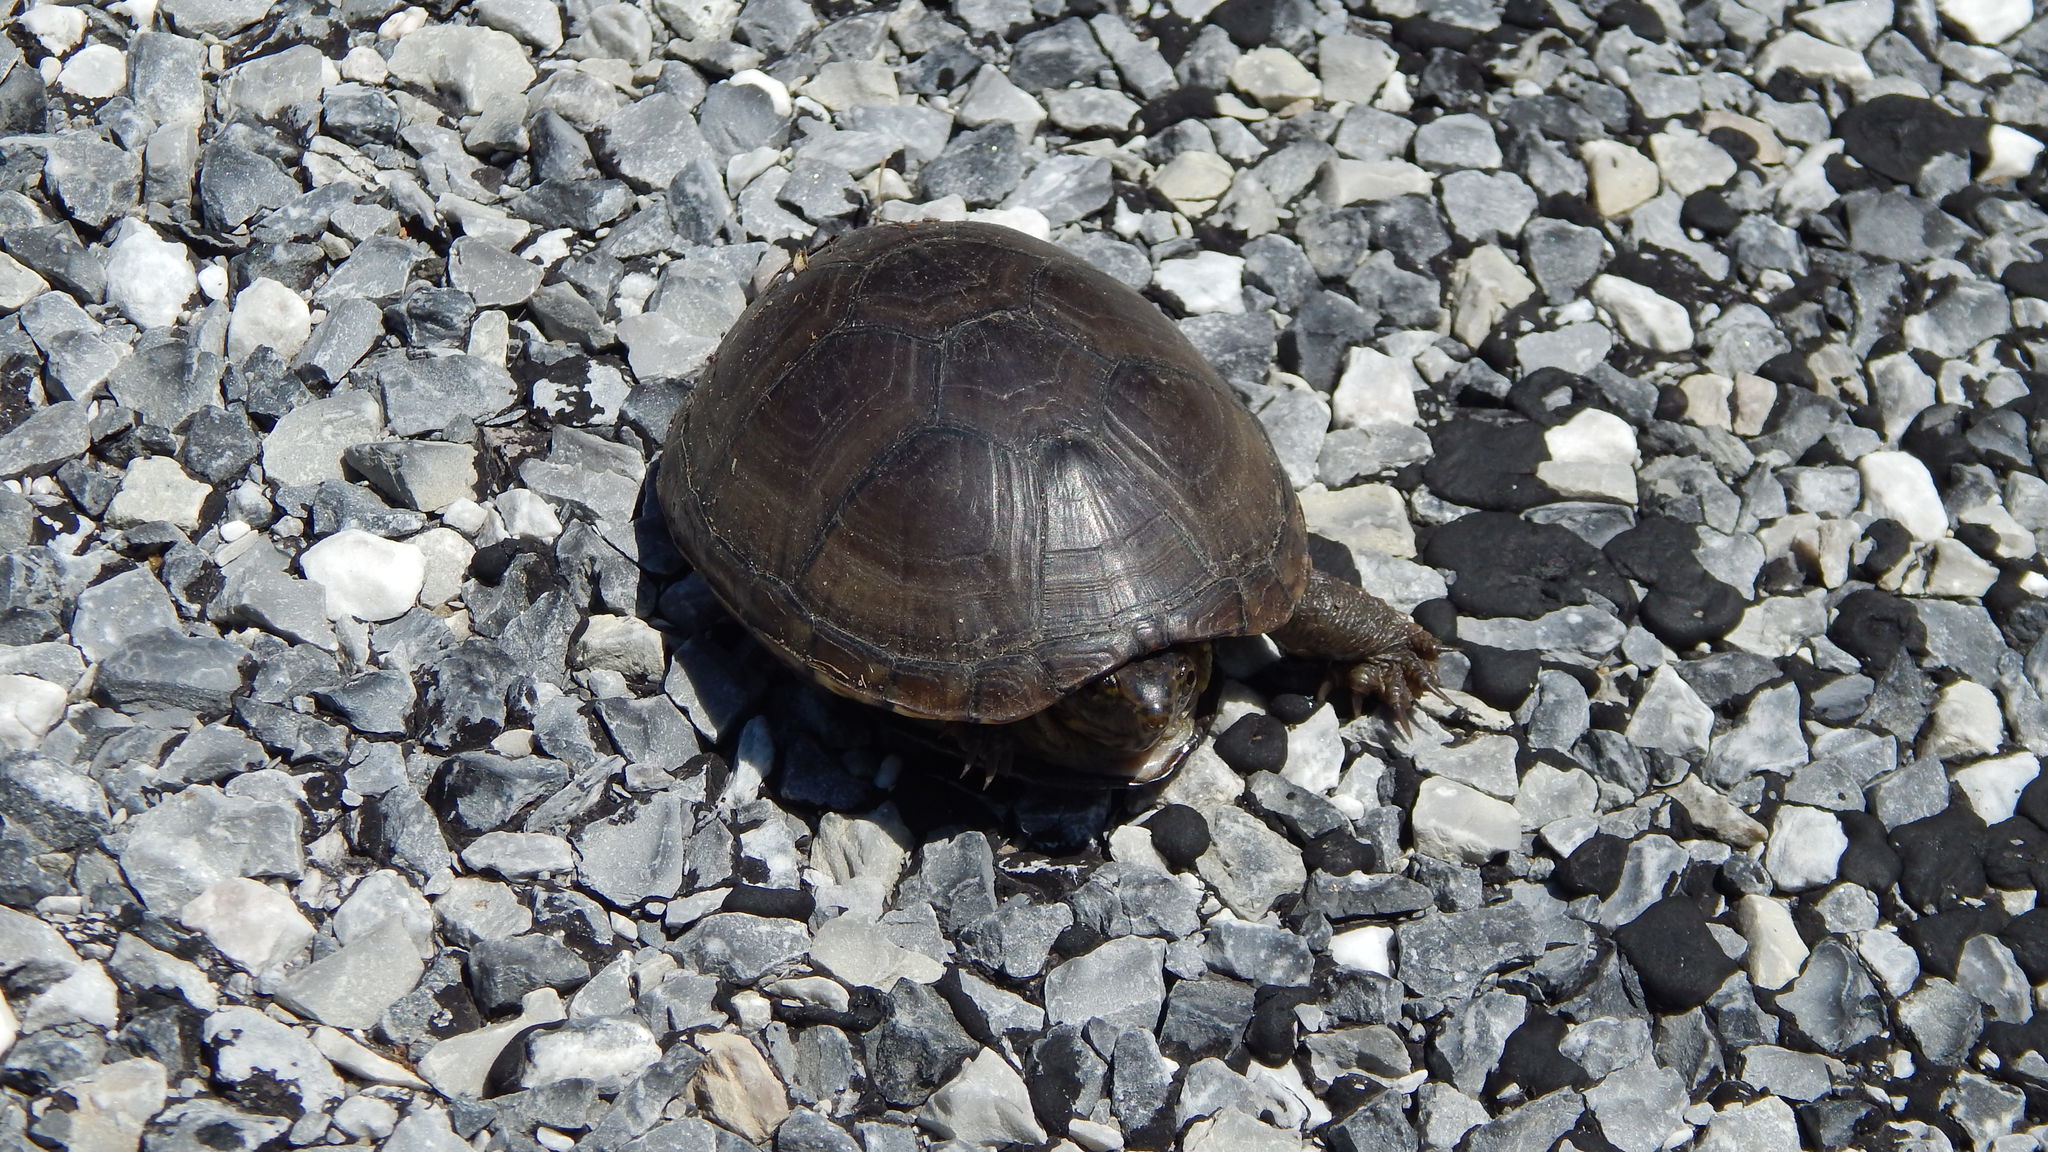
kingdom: Animalia
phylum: Chordata
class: Testudines
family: Kinosternidae
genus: Kinosternon
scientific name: Kinosternon subrubrum
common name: Eastern mud turtle
